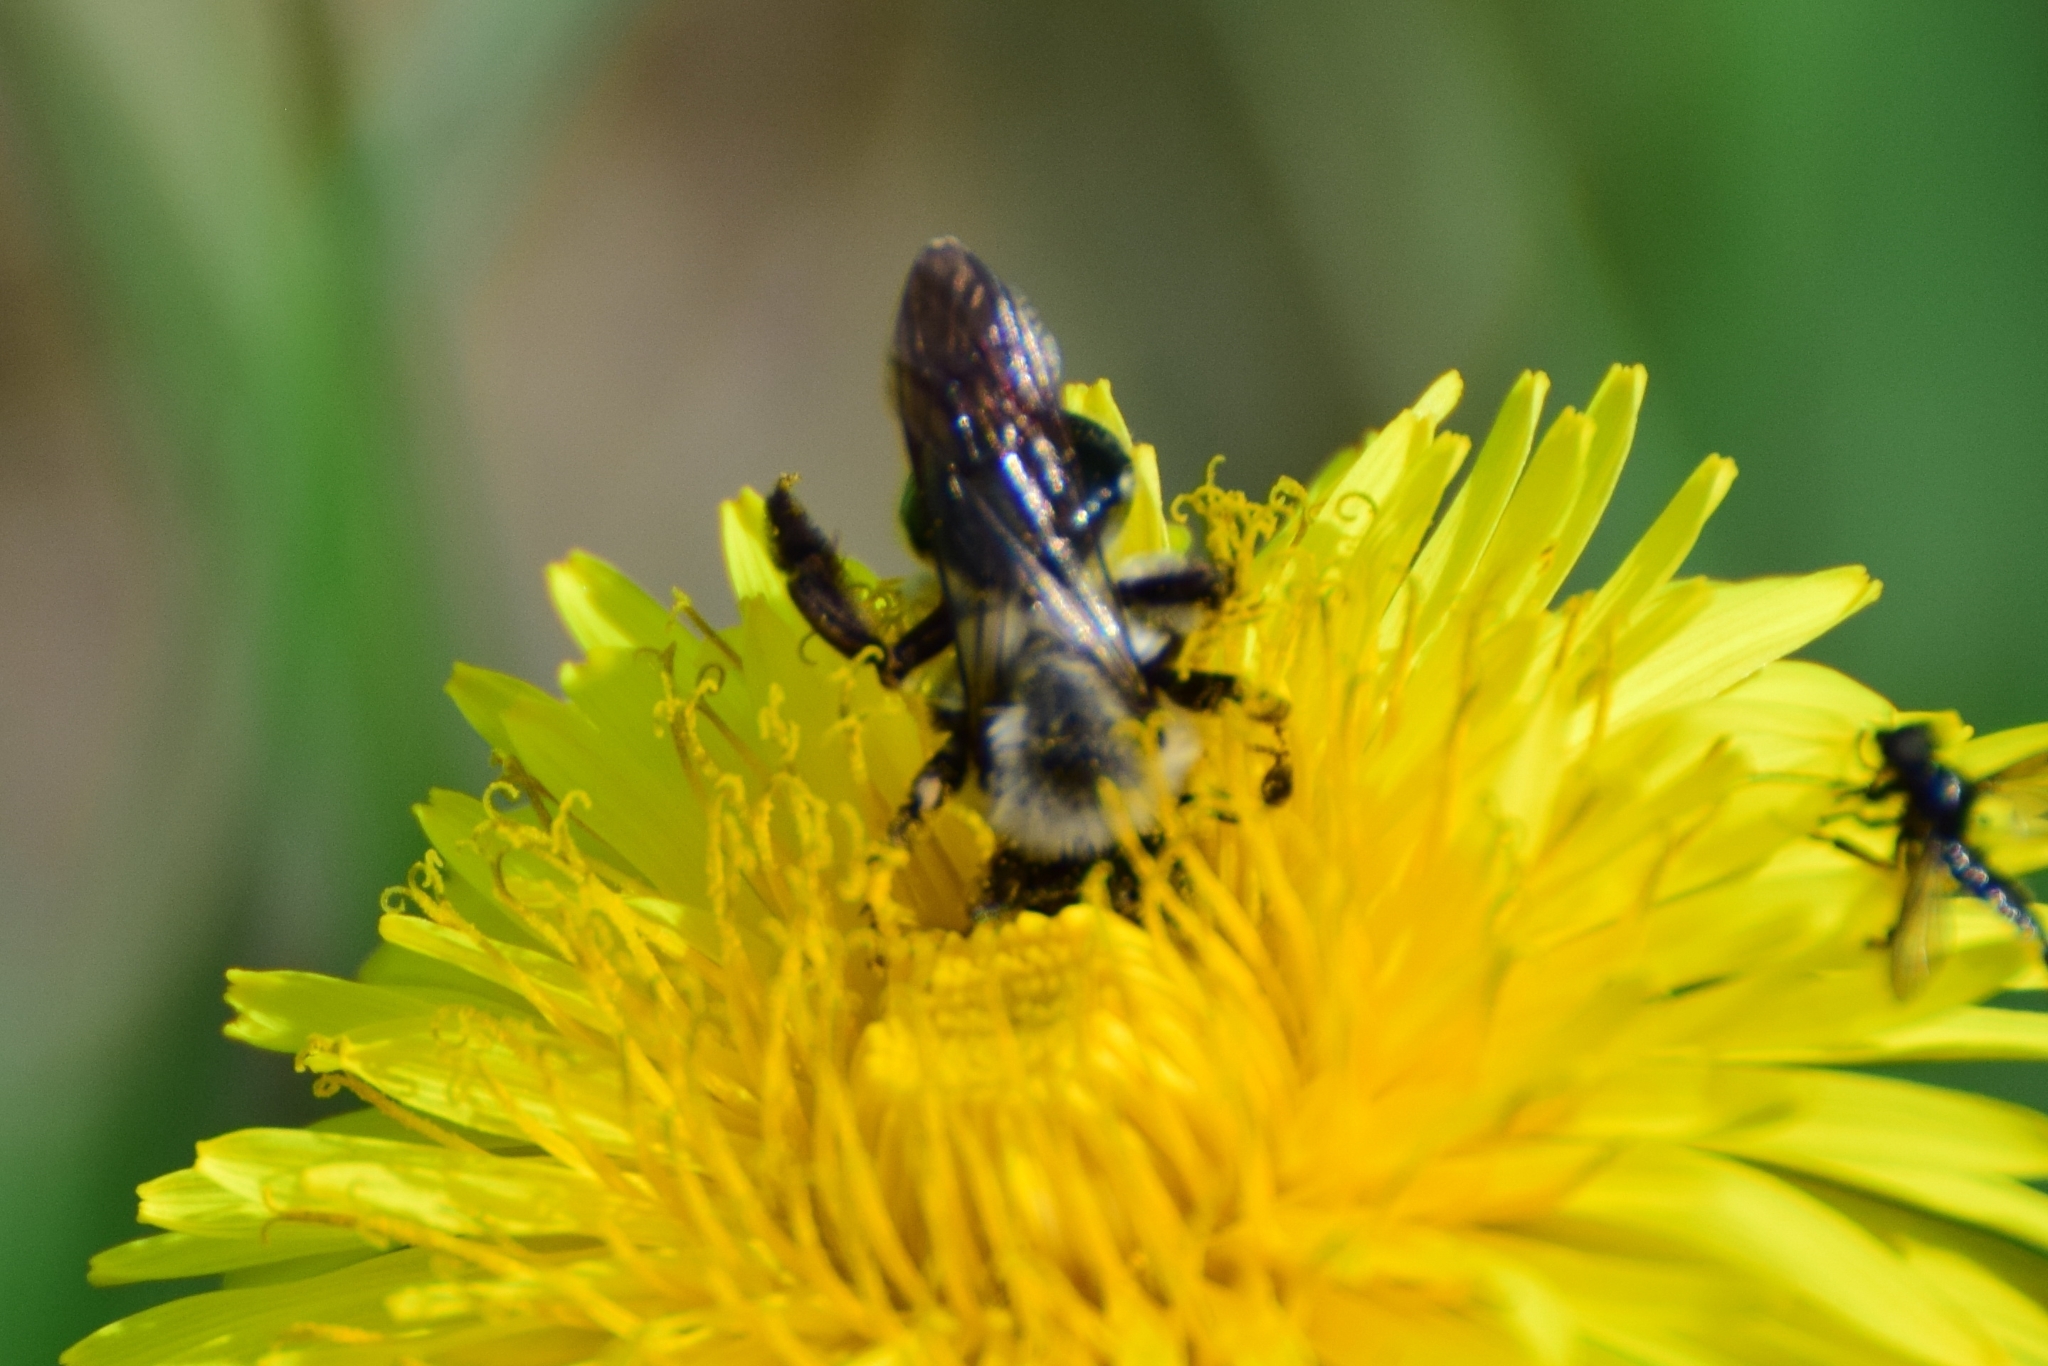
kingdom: Animalia
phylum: Arthropoda
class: Insecta
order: Hymenoptera
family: Andrenidae
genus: Andrena
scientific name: Andrena vaga
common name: Grey-backed mining bee
